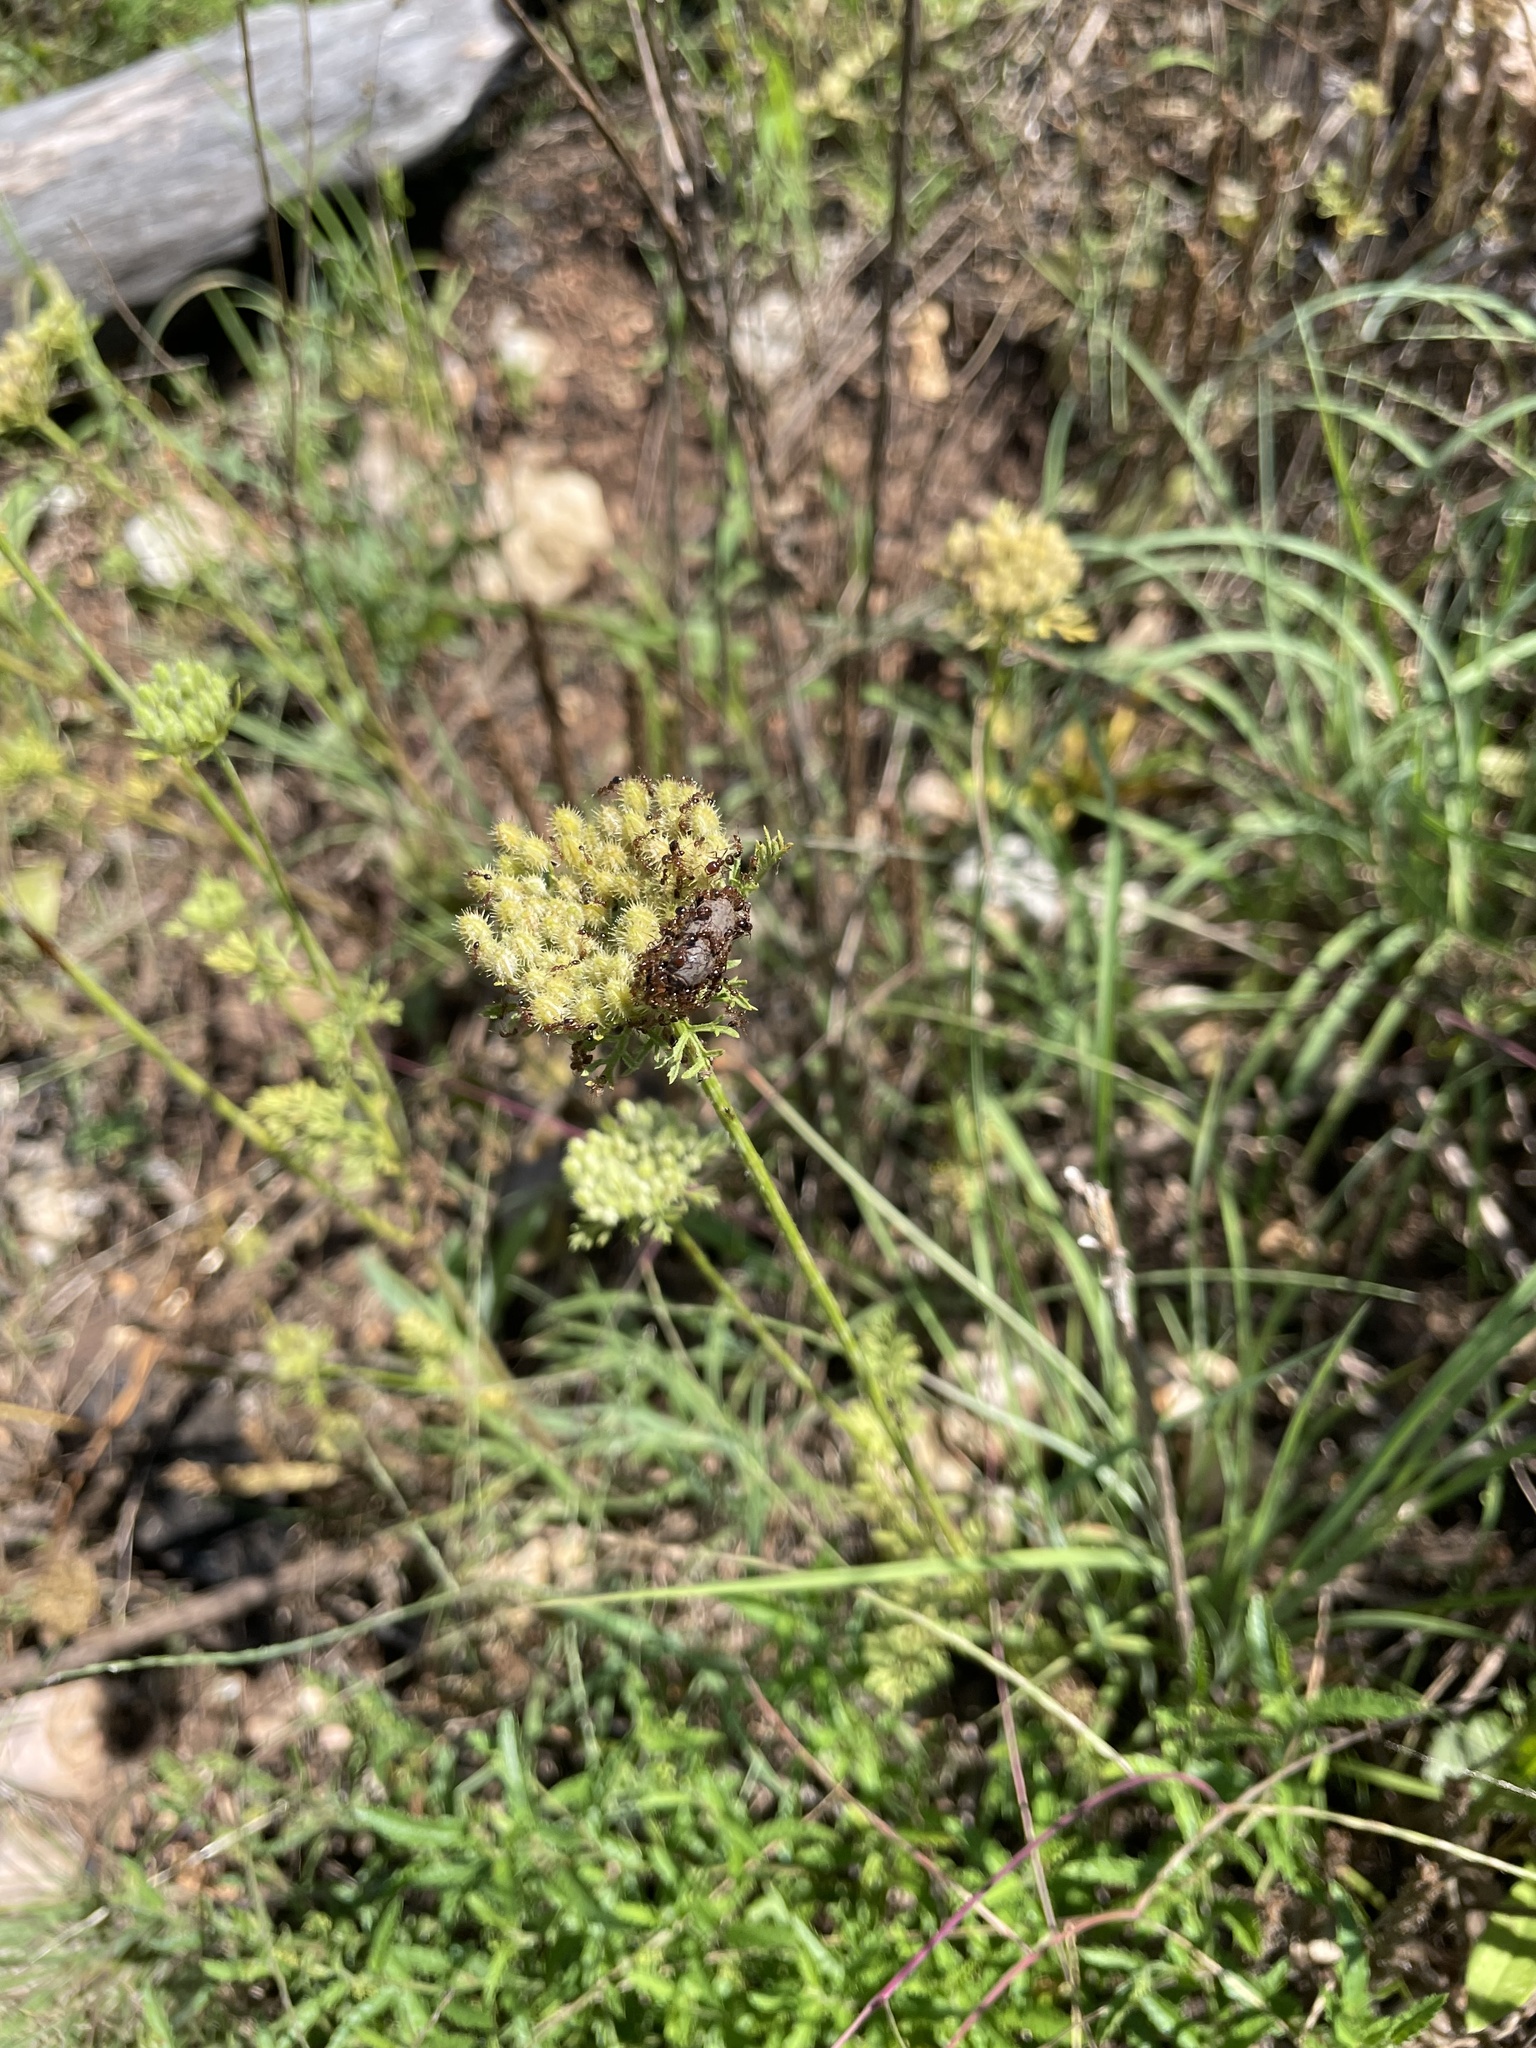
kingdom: Animalia
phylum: Arthropoda
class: Insecta
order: Hymenoptera
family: Formicidae
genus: Solenopsis
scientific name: Solenopsis invicta
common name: Red imported fire ant
